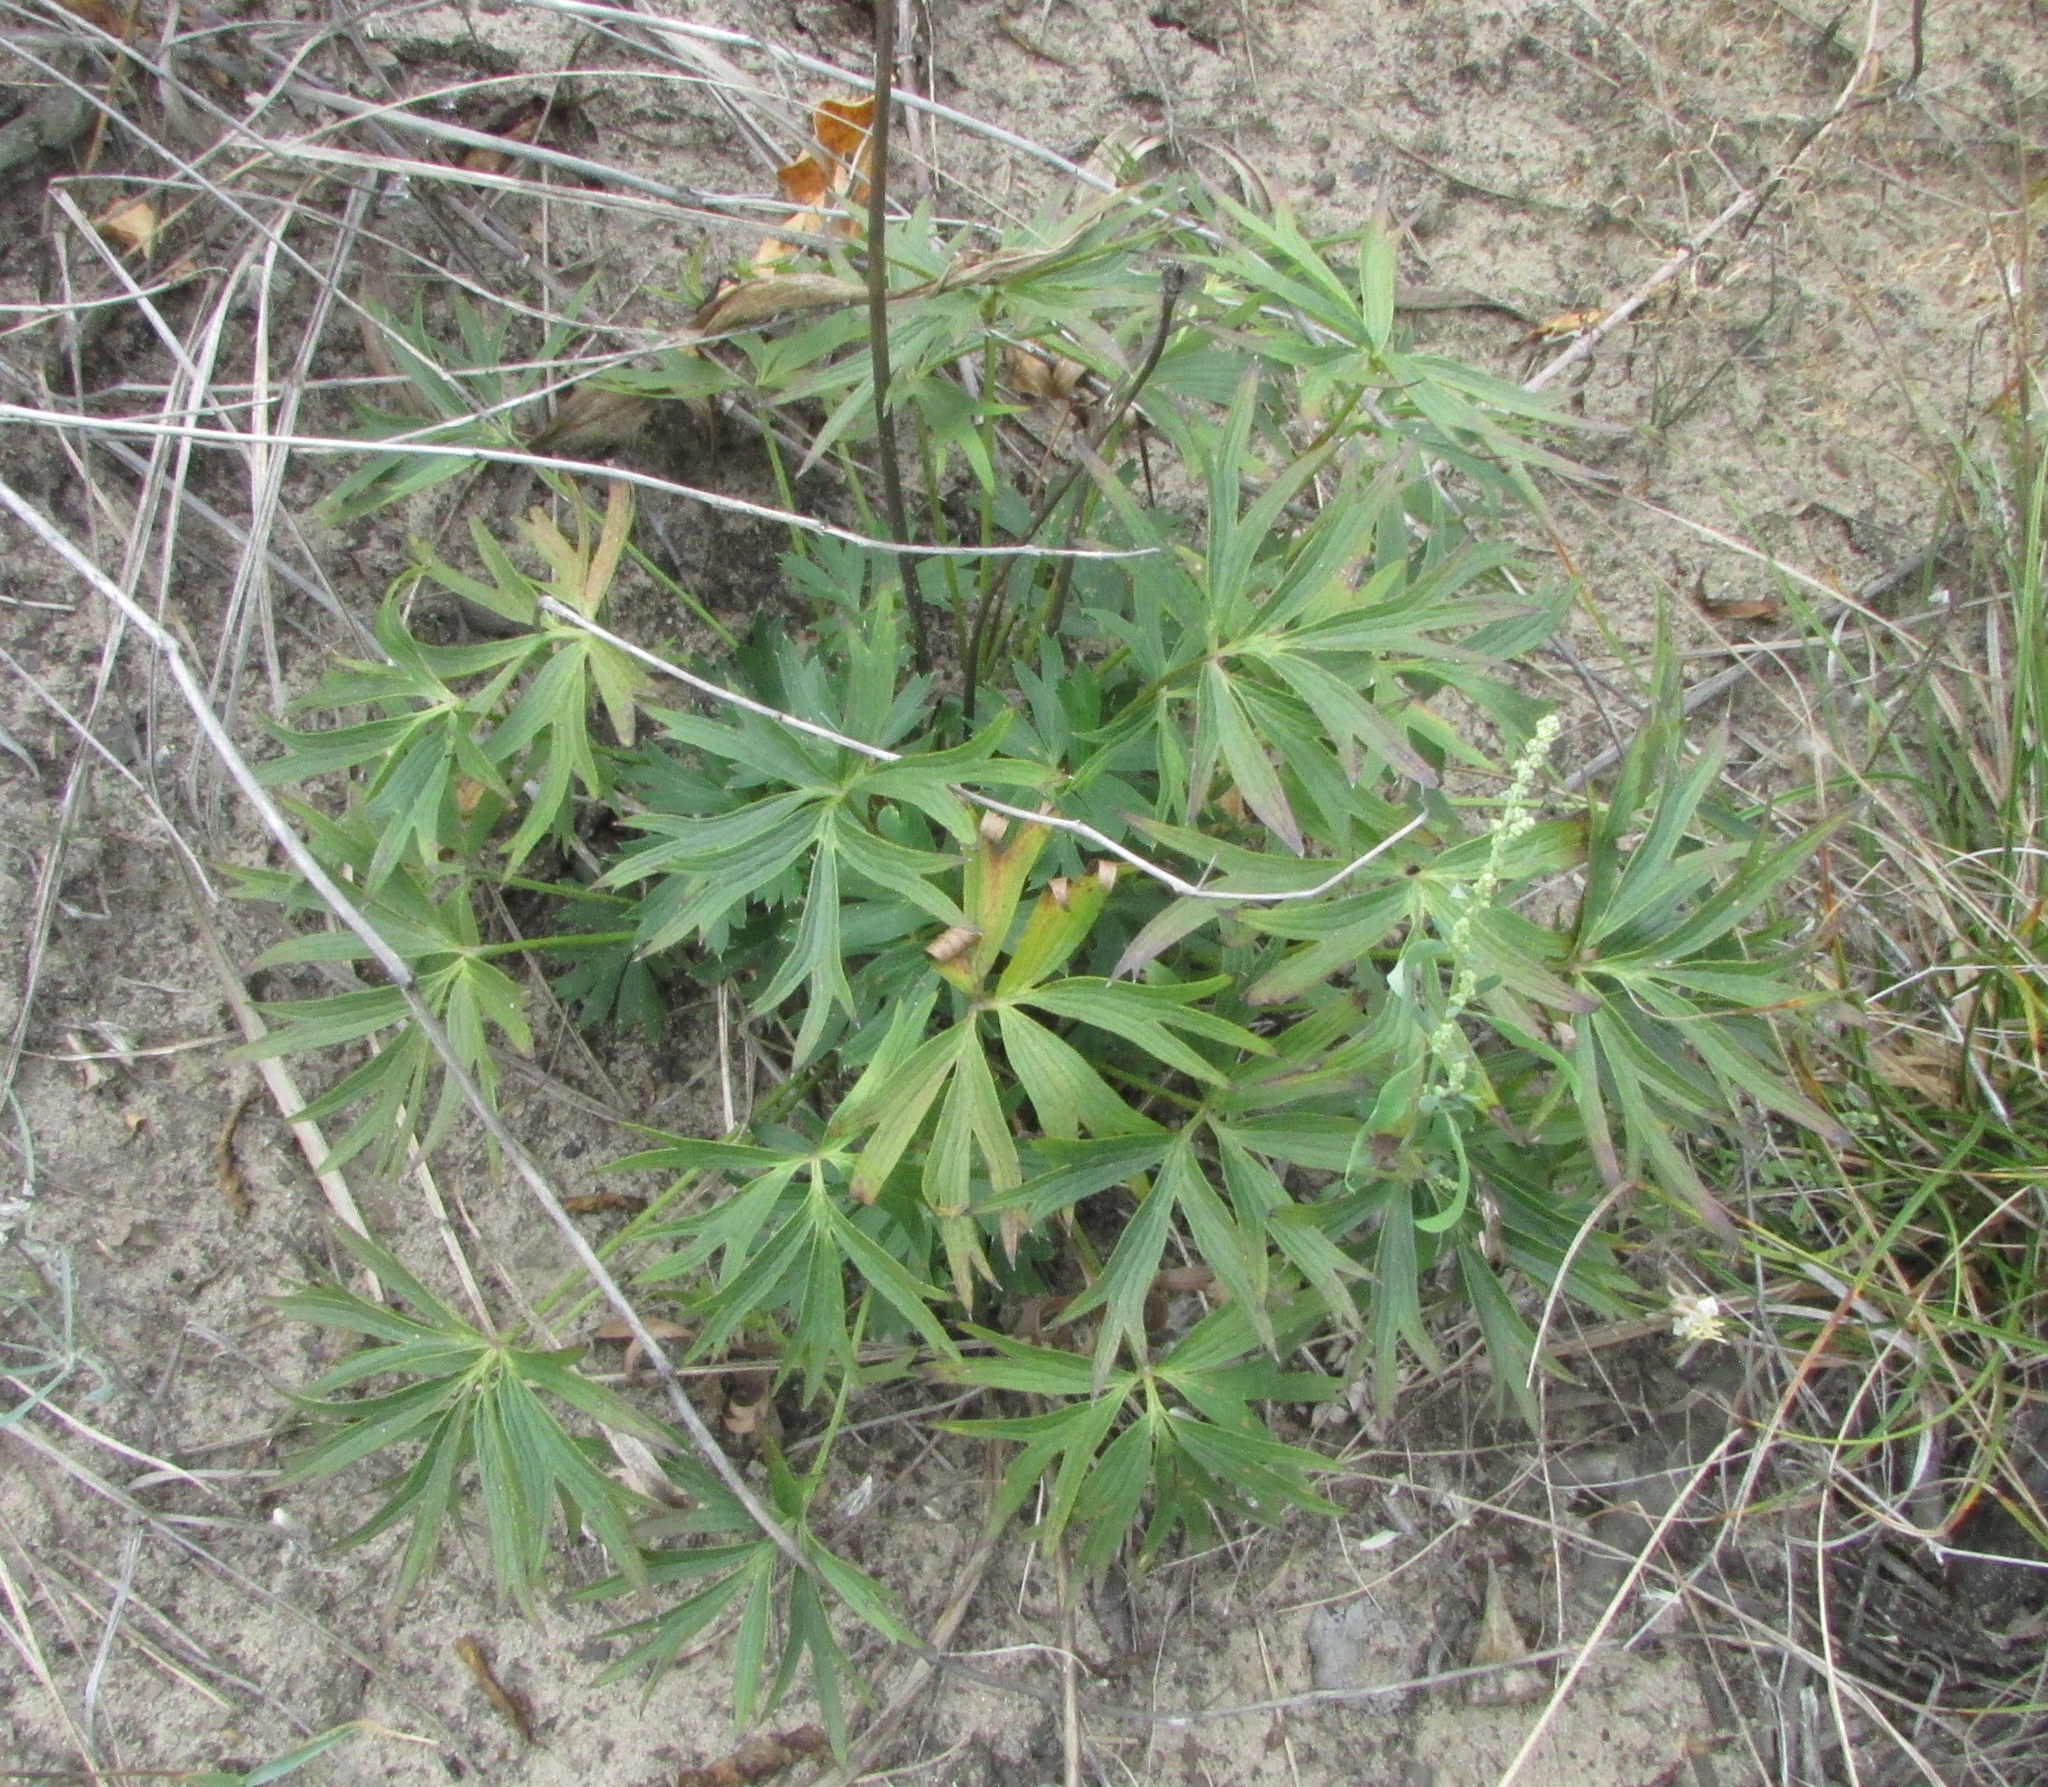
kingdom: Plantae
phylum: Tracheophyta
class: Magnoliopsida
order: Ranunculales
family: Ranunculaceae
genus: Pulsatilla
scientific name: Pulsatilla patens
